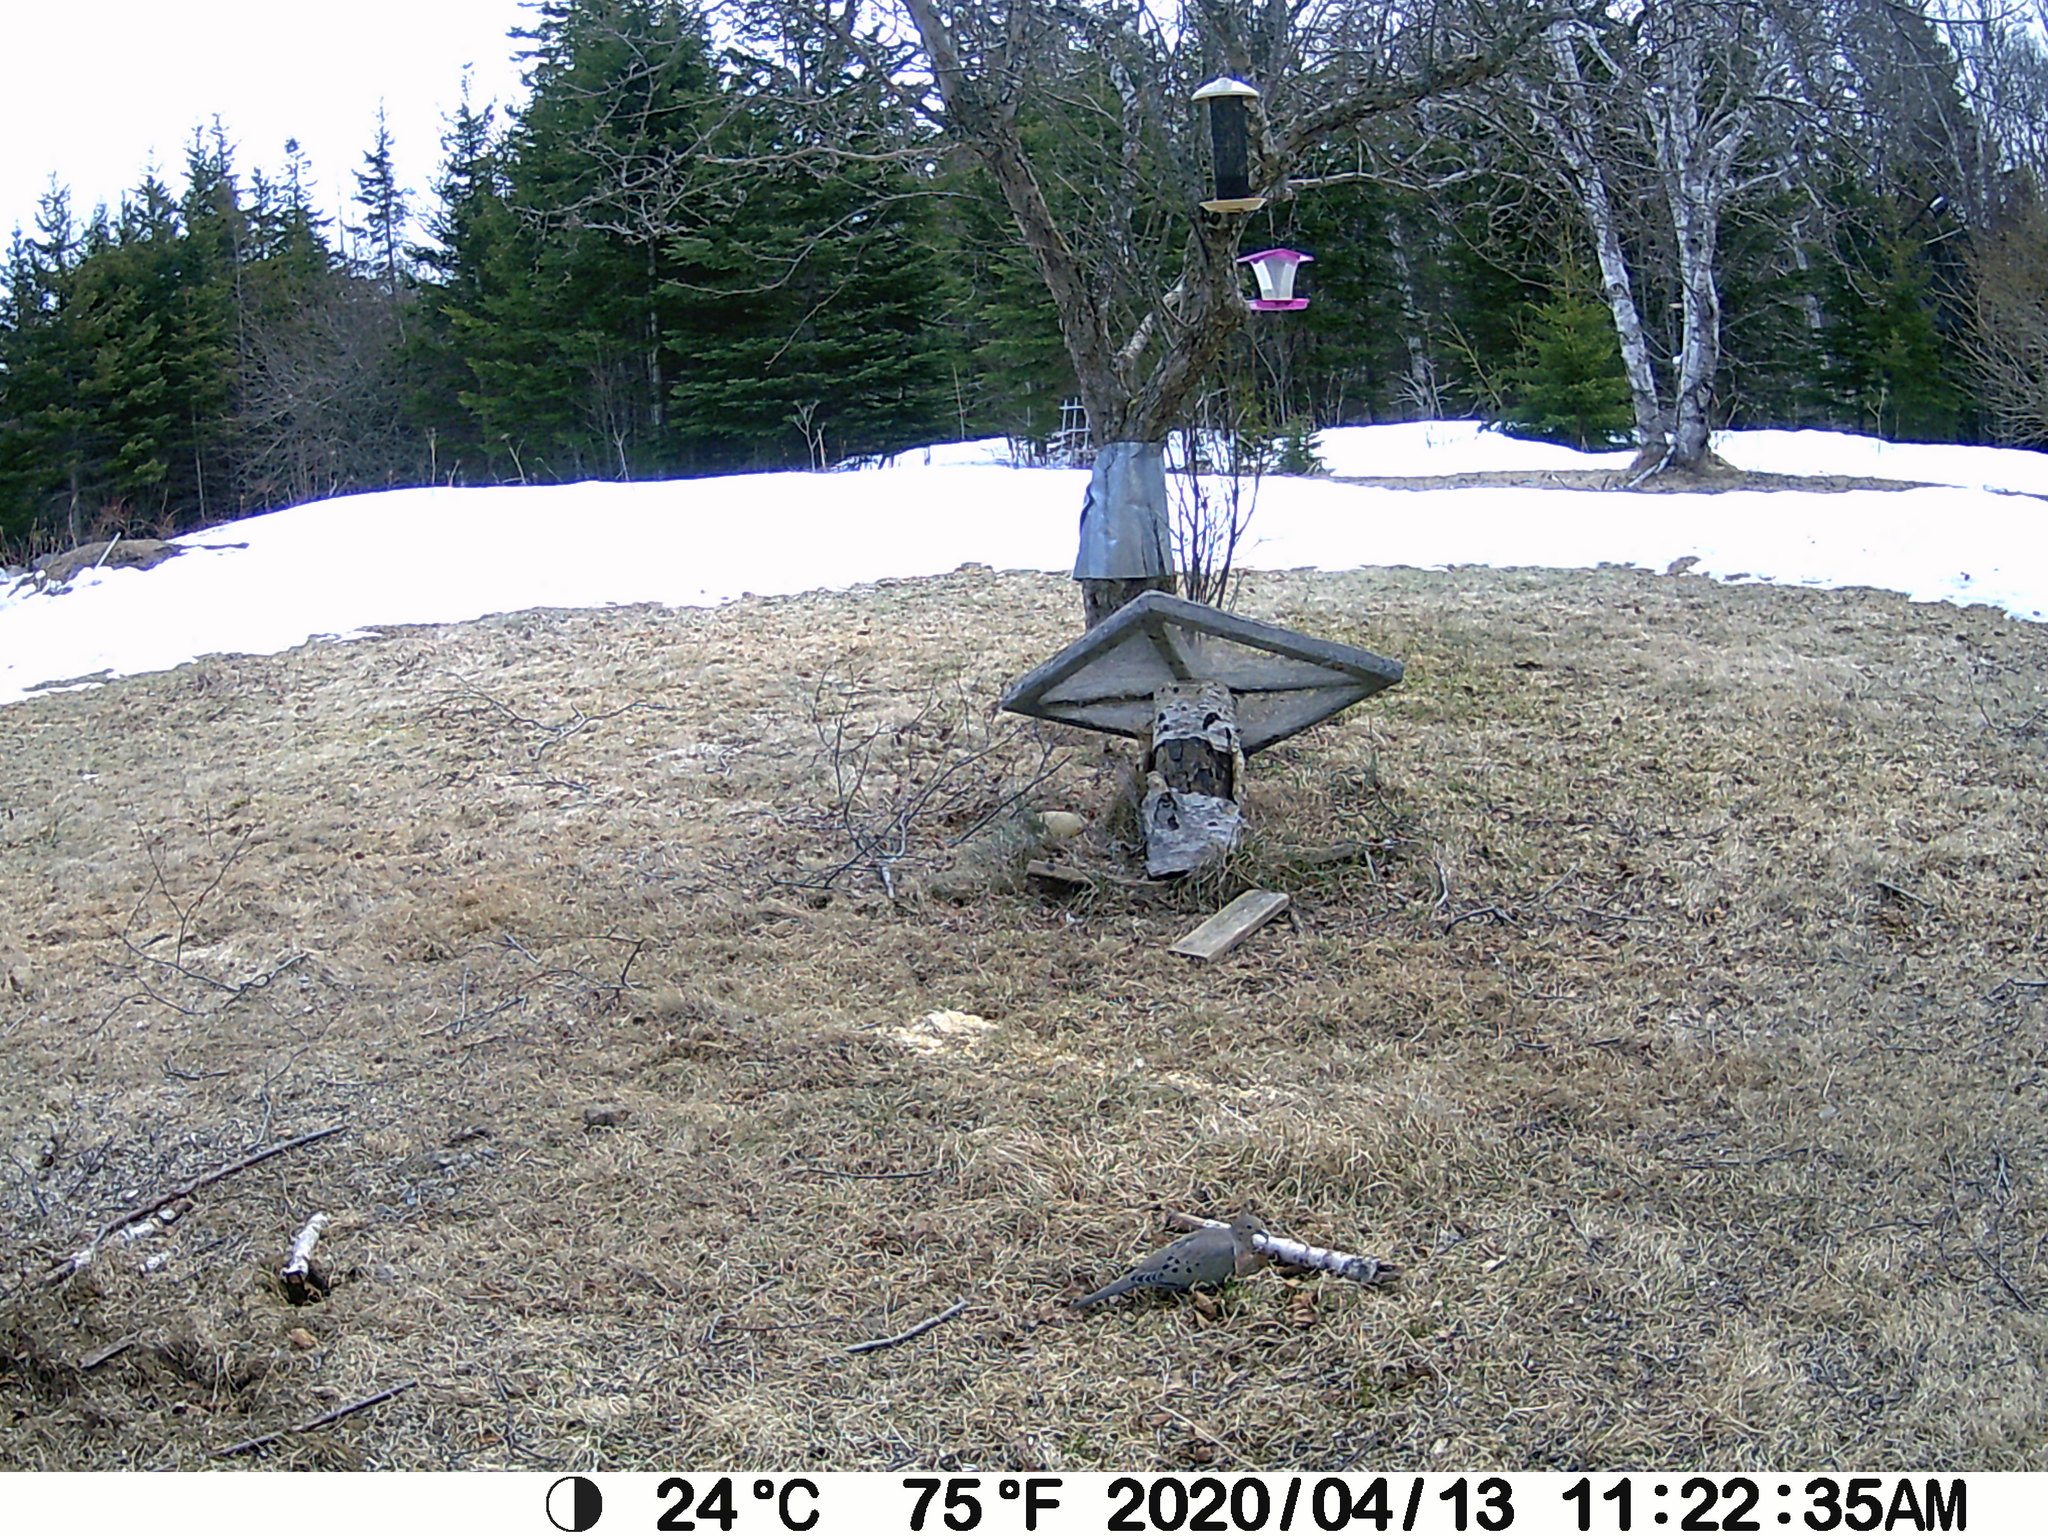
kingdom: Animalia
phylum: Chordata
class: Aves
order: Columbiformes
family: Columbidae
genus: Zenaida
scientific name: Zenaida macroura
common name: Mourning dove
